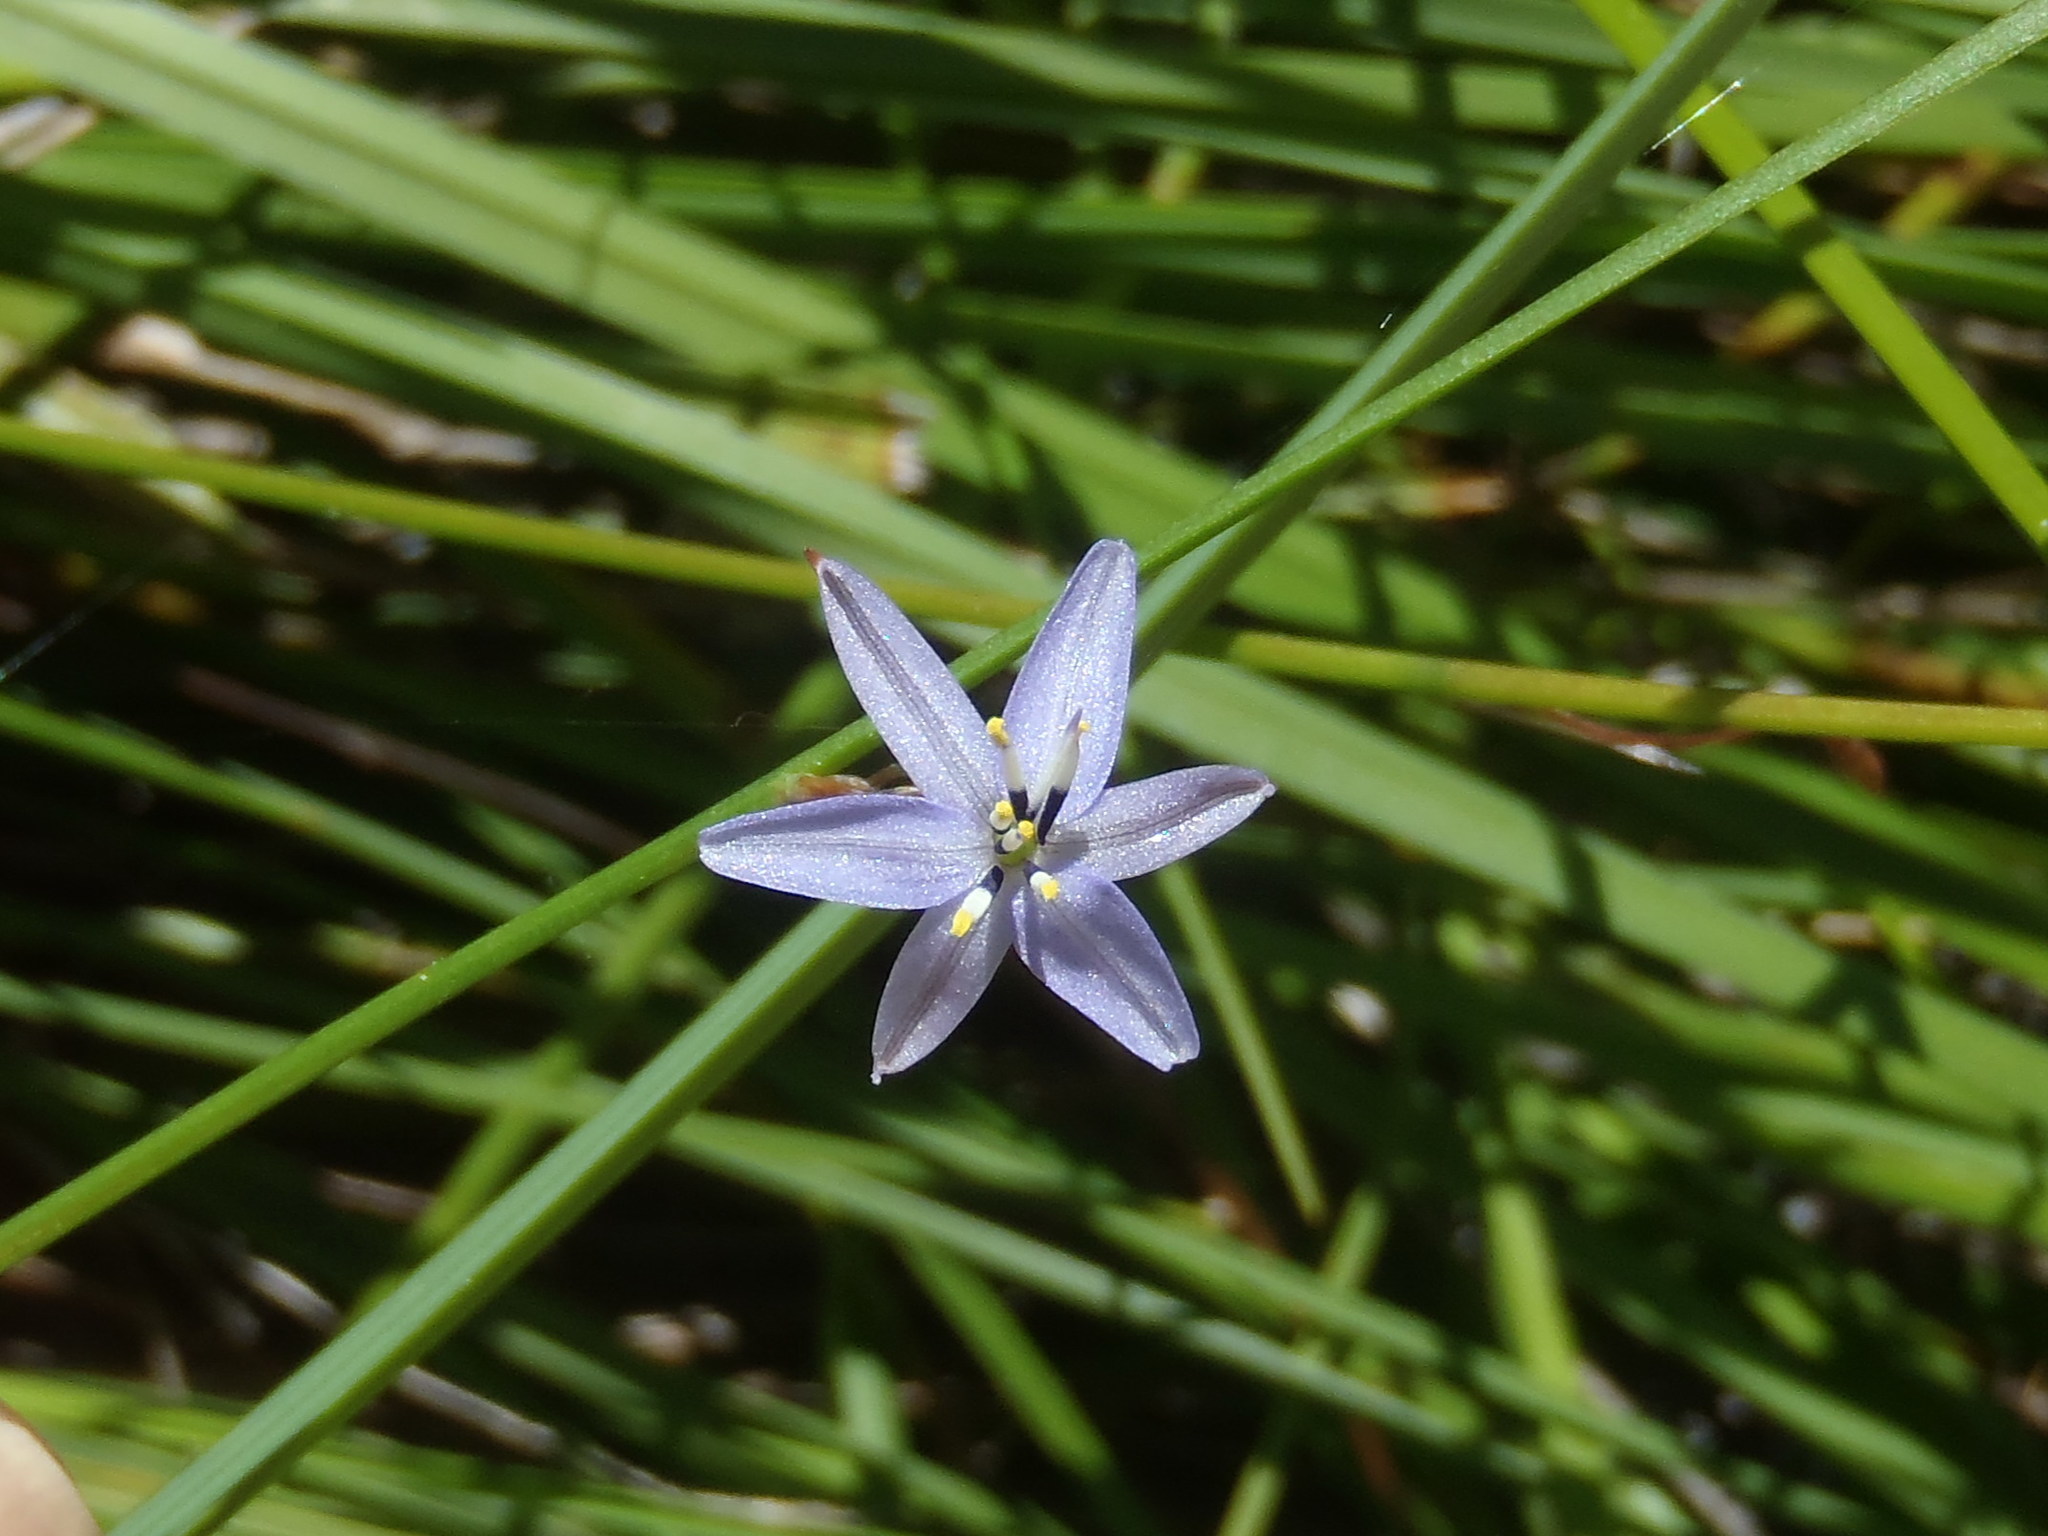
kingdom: Plantae
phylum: Tracheophyta
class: Liliopsida
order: Asparagales
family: Asphodelaceae
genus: Caesia
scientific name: Caesia contorta
